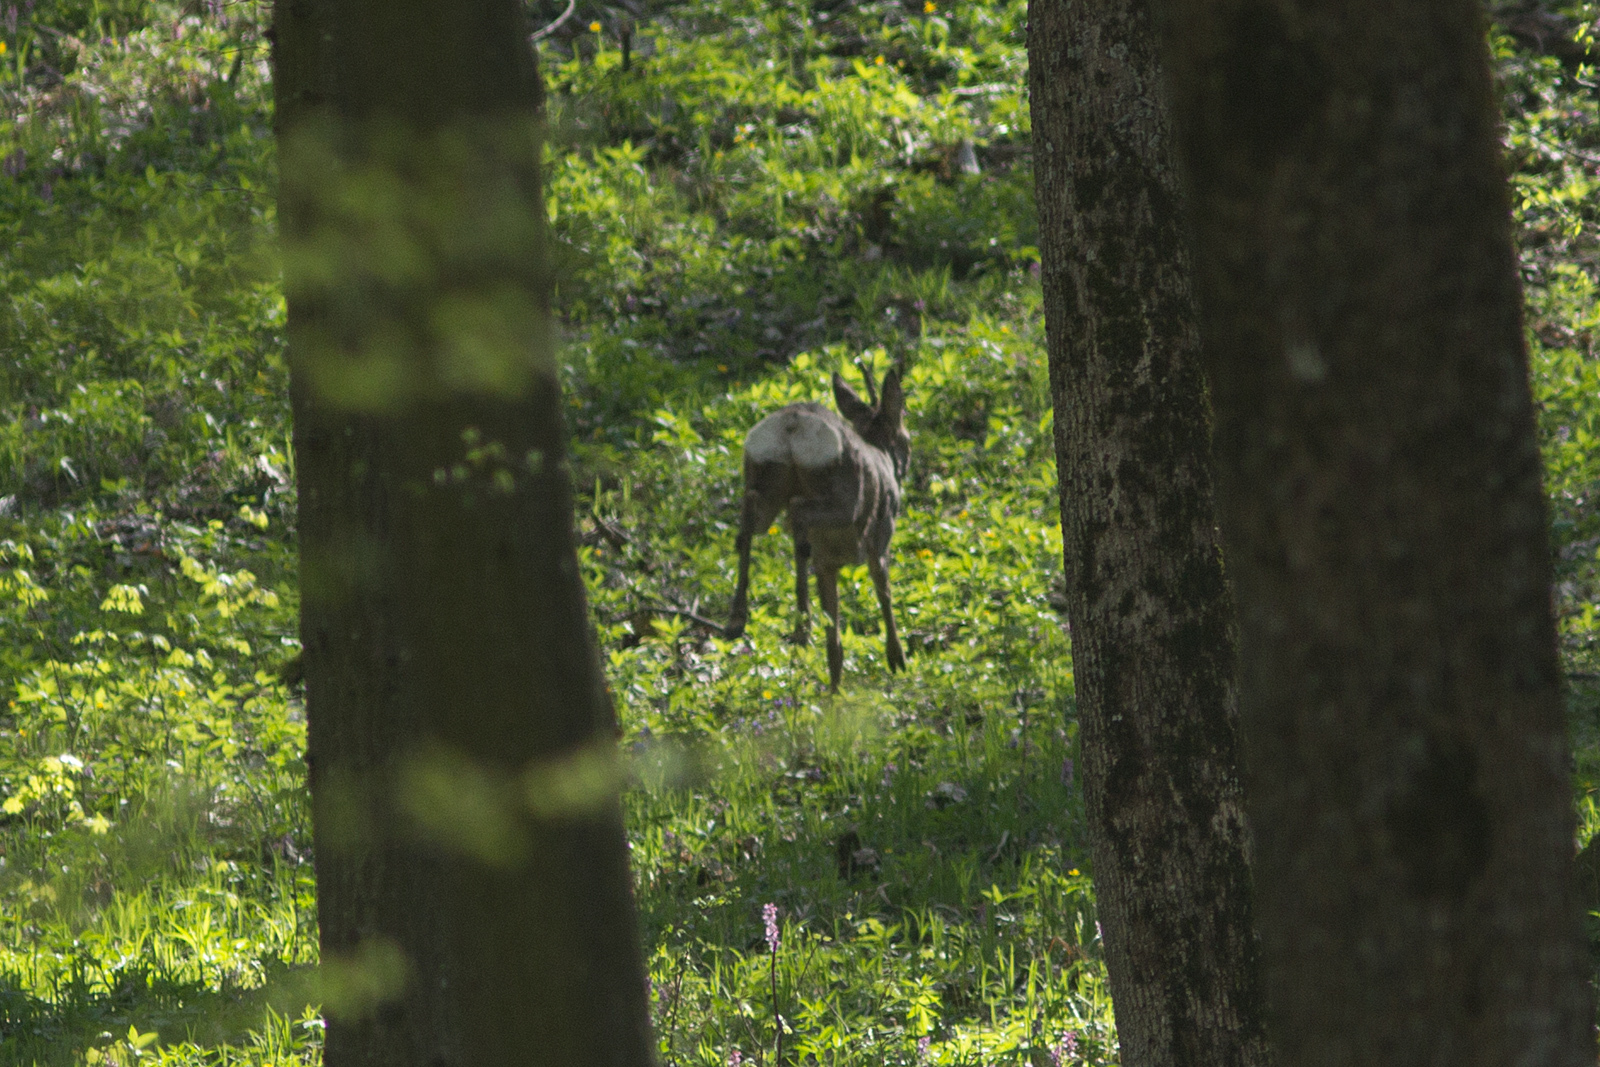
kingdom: Animalia
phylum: Chordata
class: Mammalia
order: Artiodactyla
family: Cervidae
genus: Capreolus
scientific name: Capreolus capreolus
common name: Western roe deer
